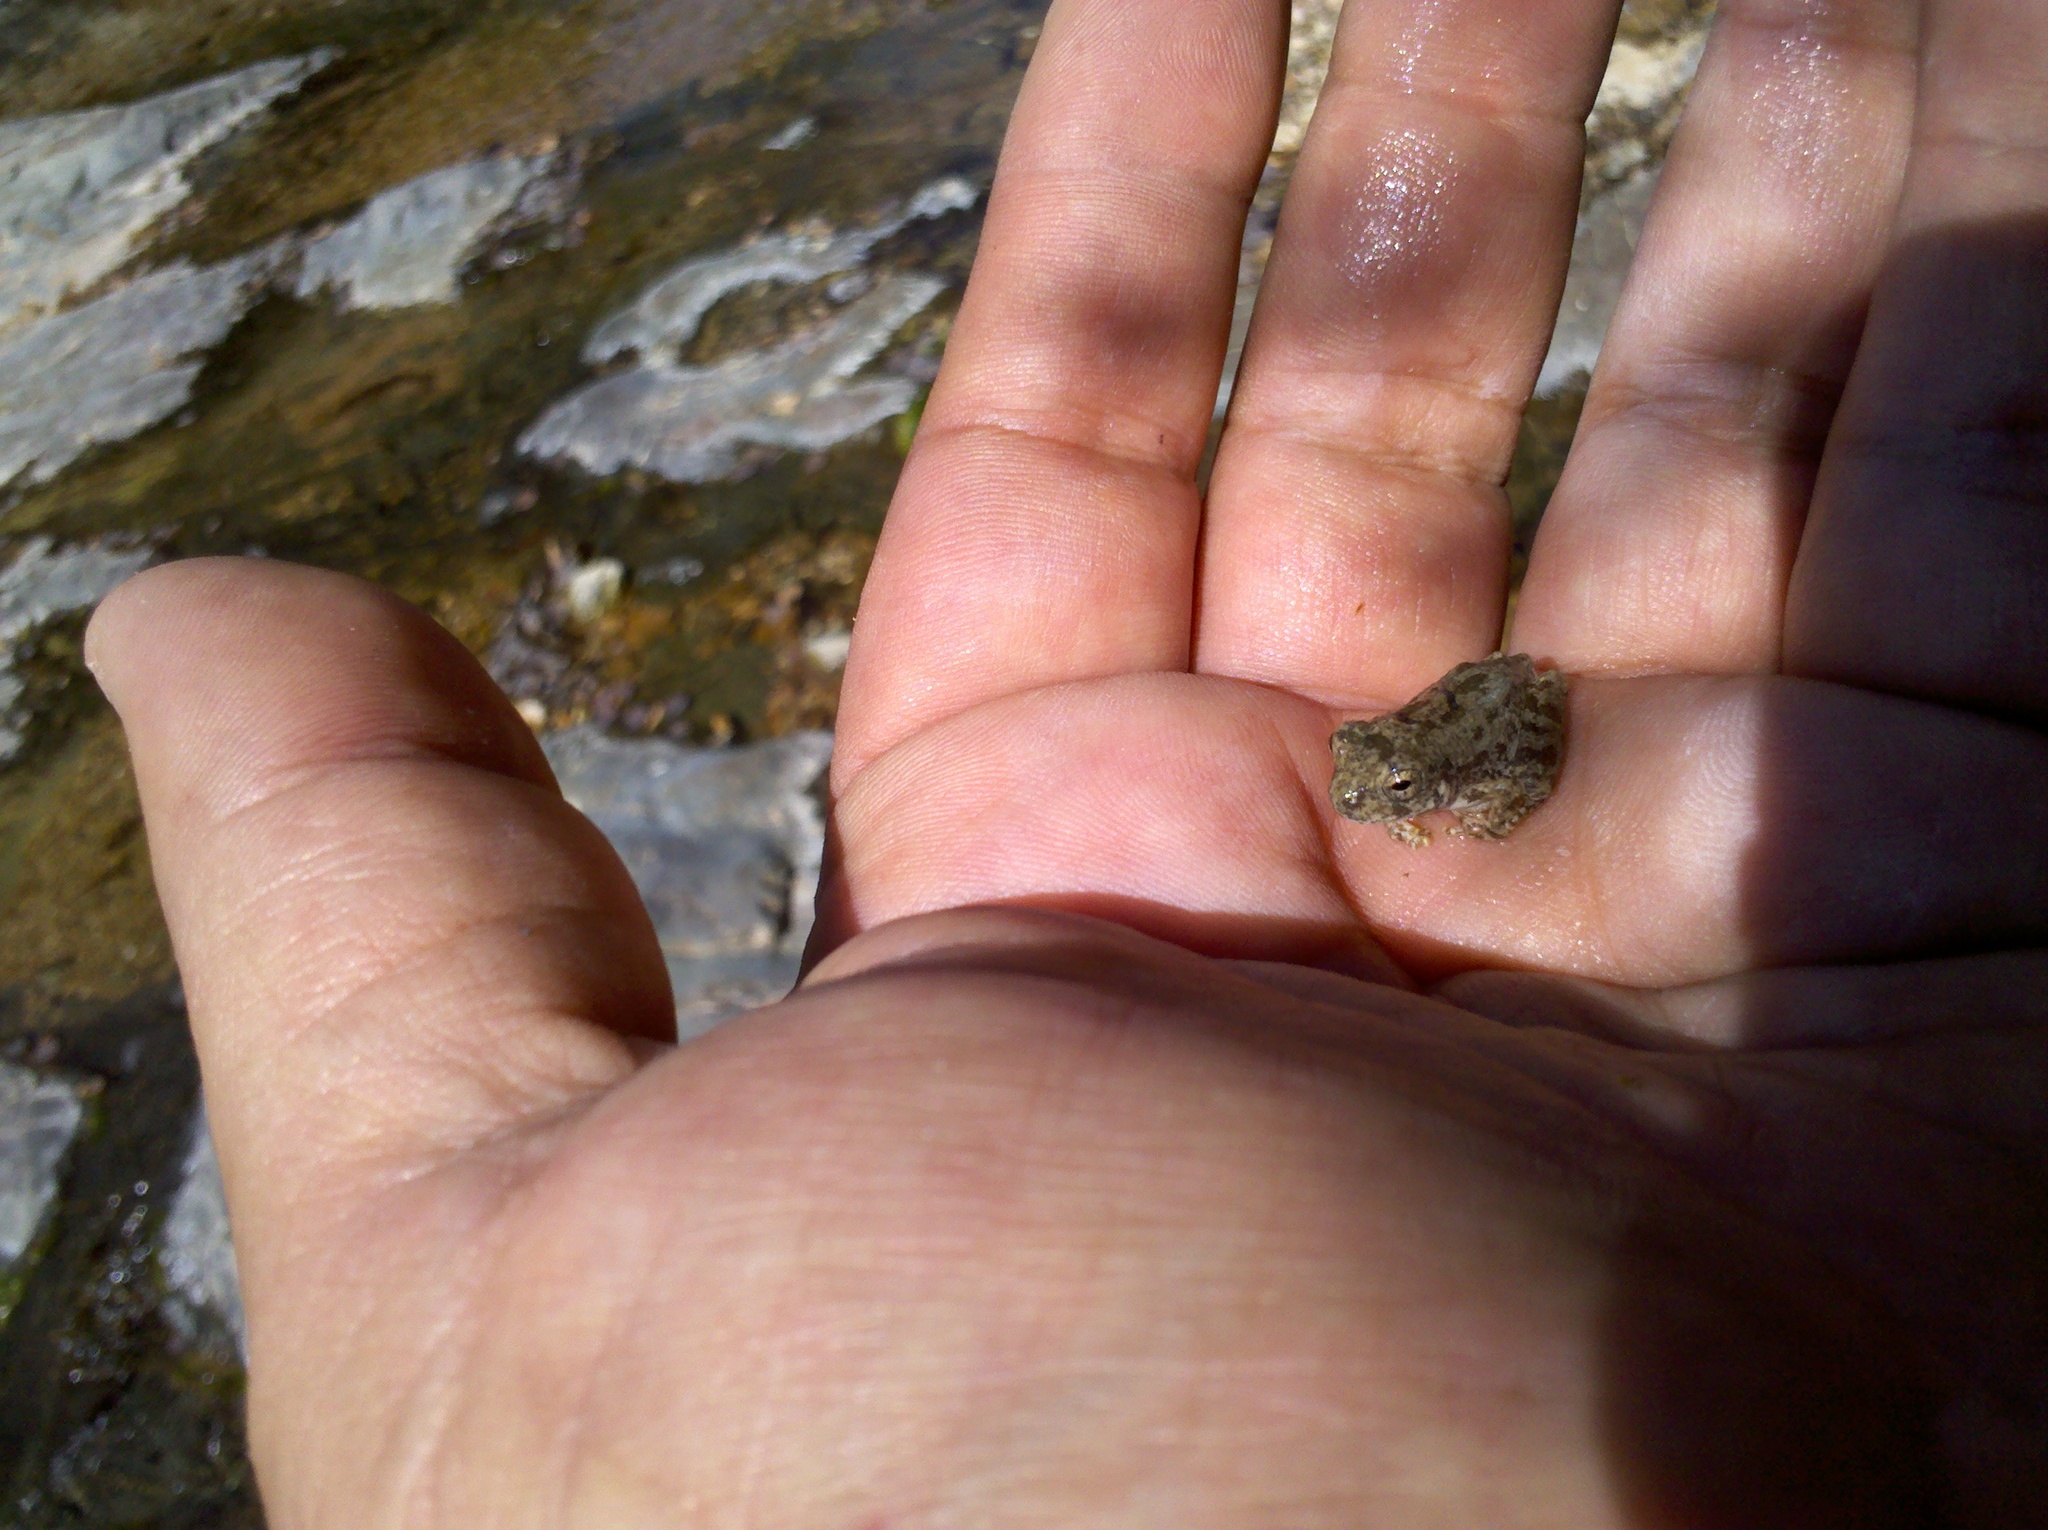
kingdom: Animalia
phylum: Chordata
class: Amphibia
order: Anura
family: Hylidae
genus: Dryophytes
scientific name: Dryophytes arenicolor
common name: Canyon treefrog
